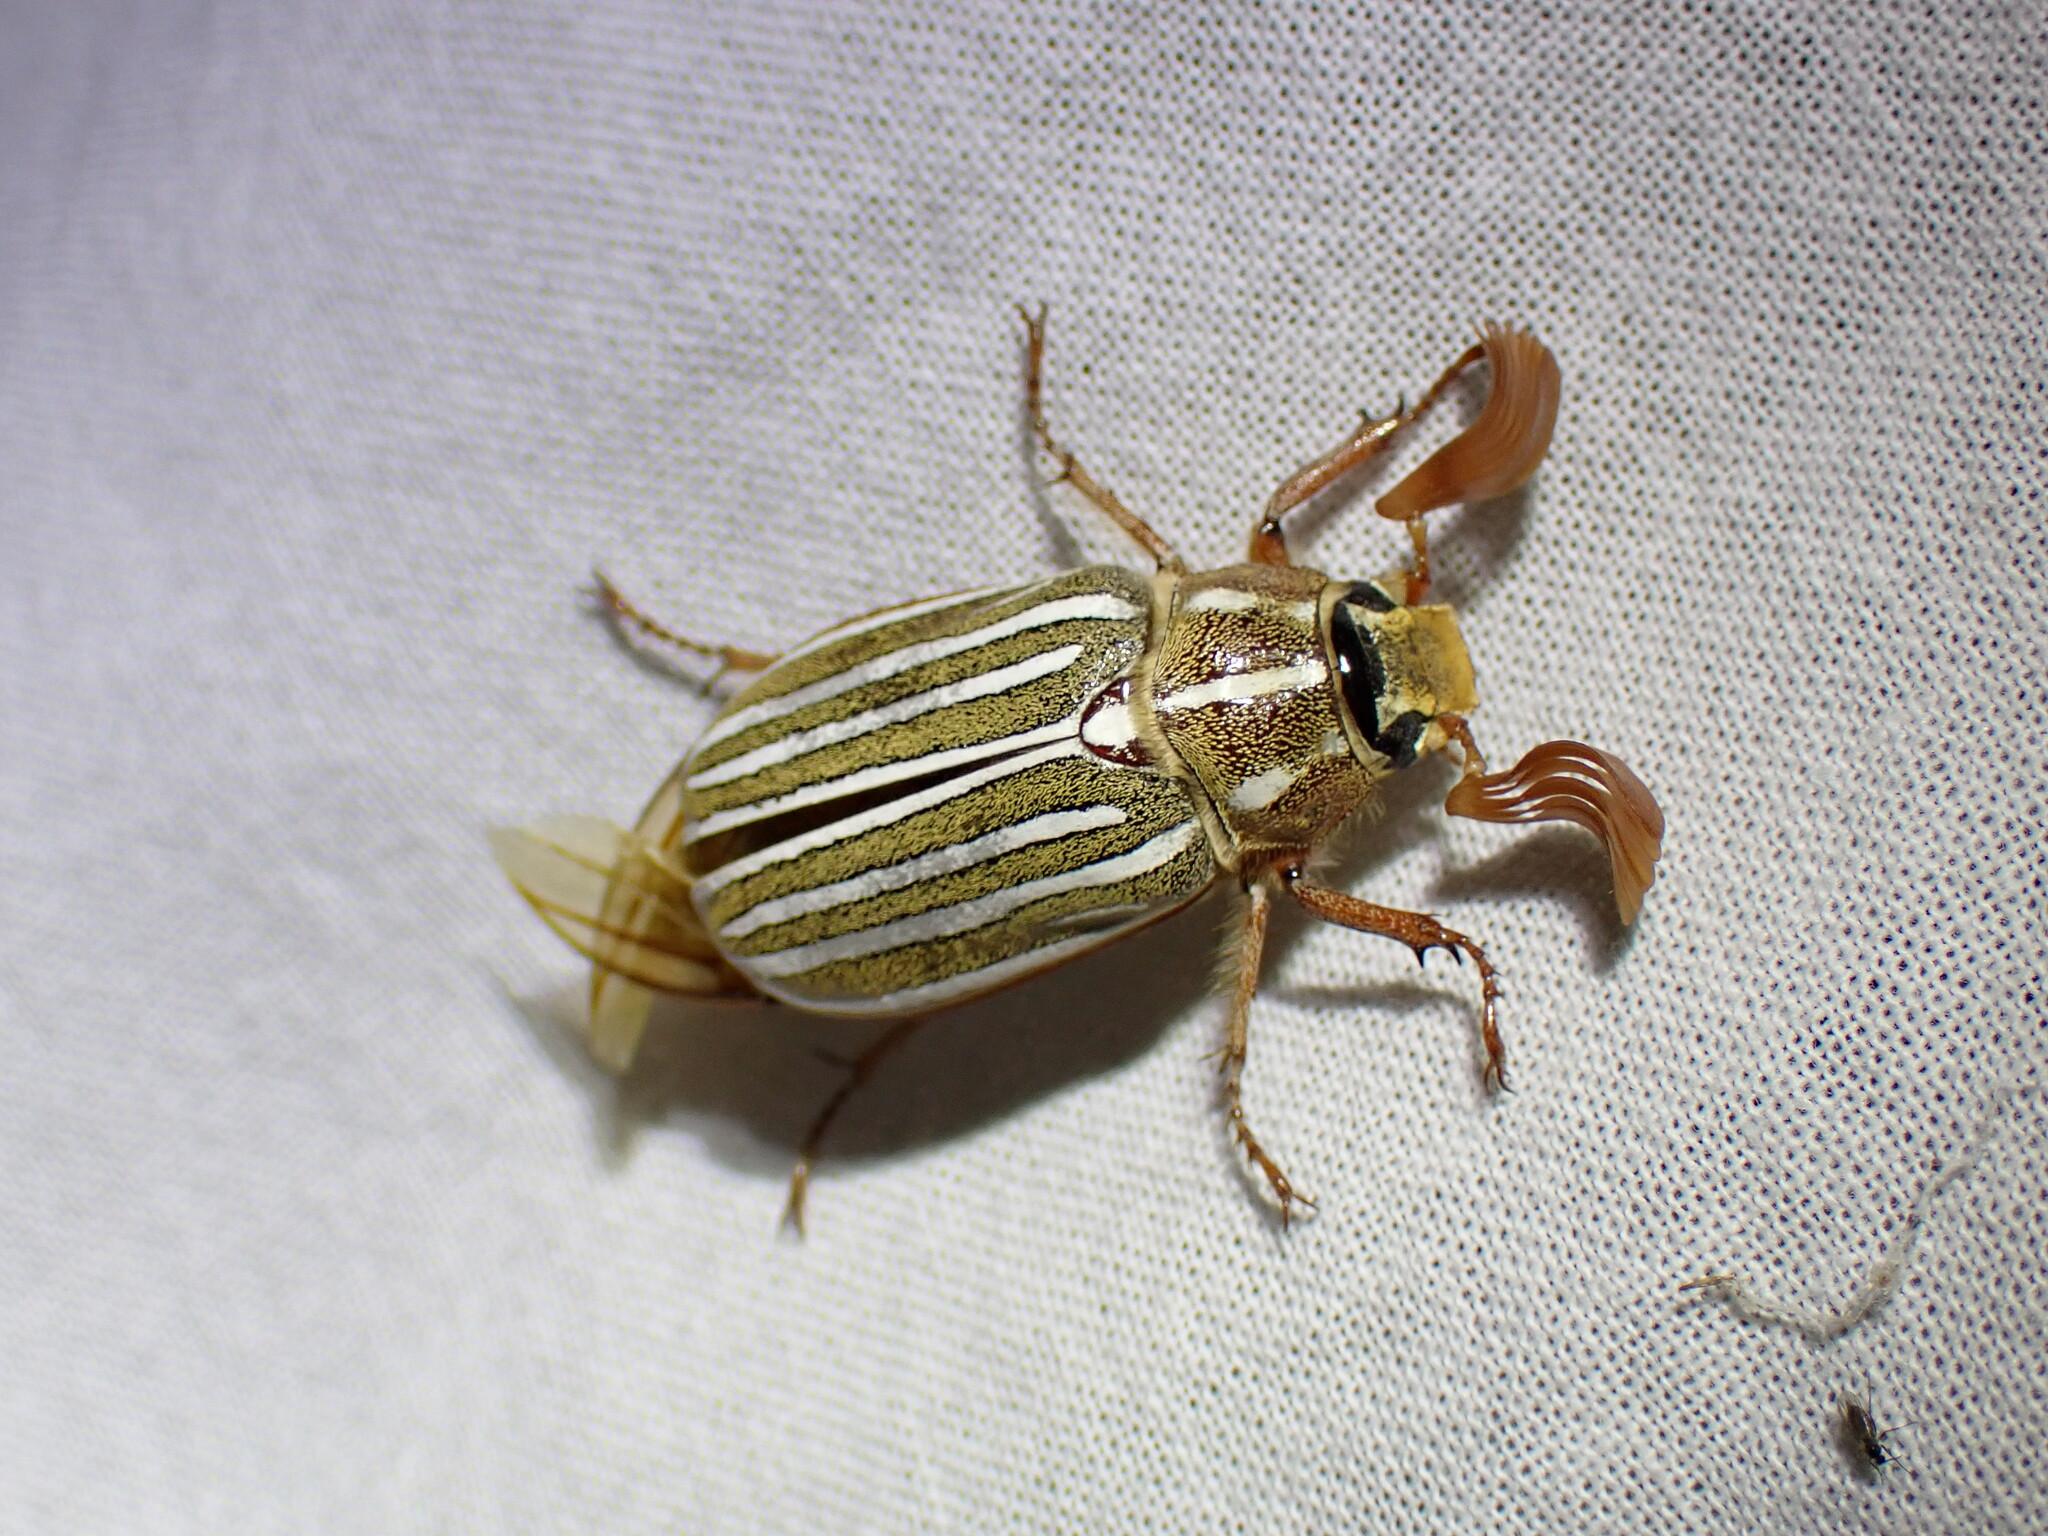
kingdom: Animalia
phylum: Arthropoda
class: Insecta
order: Coleoptera
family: Scarabaeidae
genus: Polyphylla
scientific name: Polyphylla decemlineata
